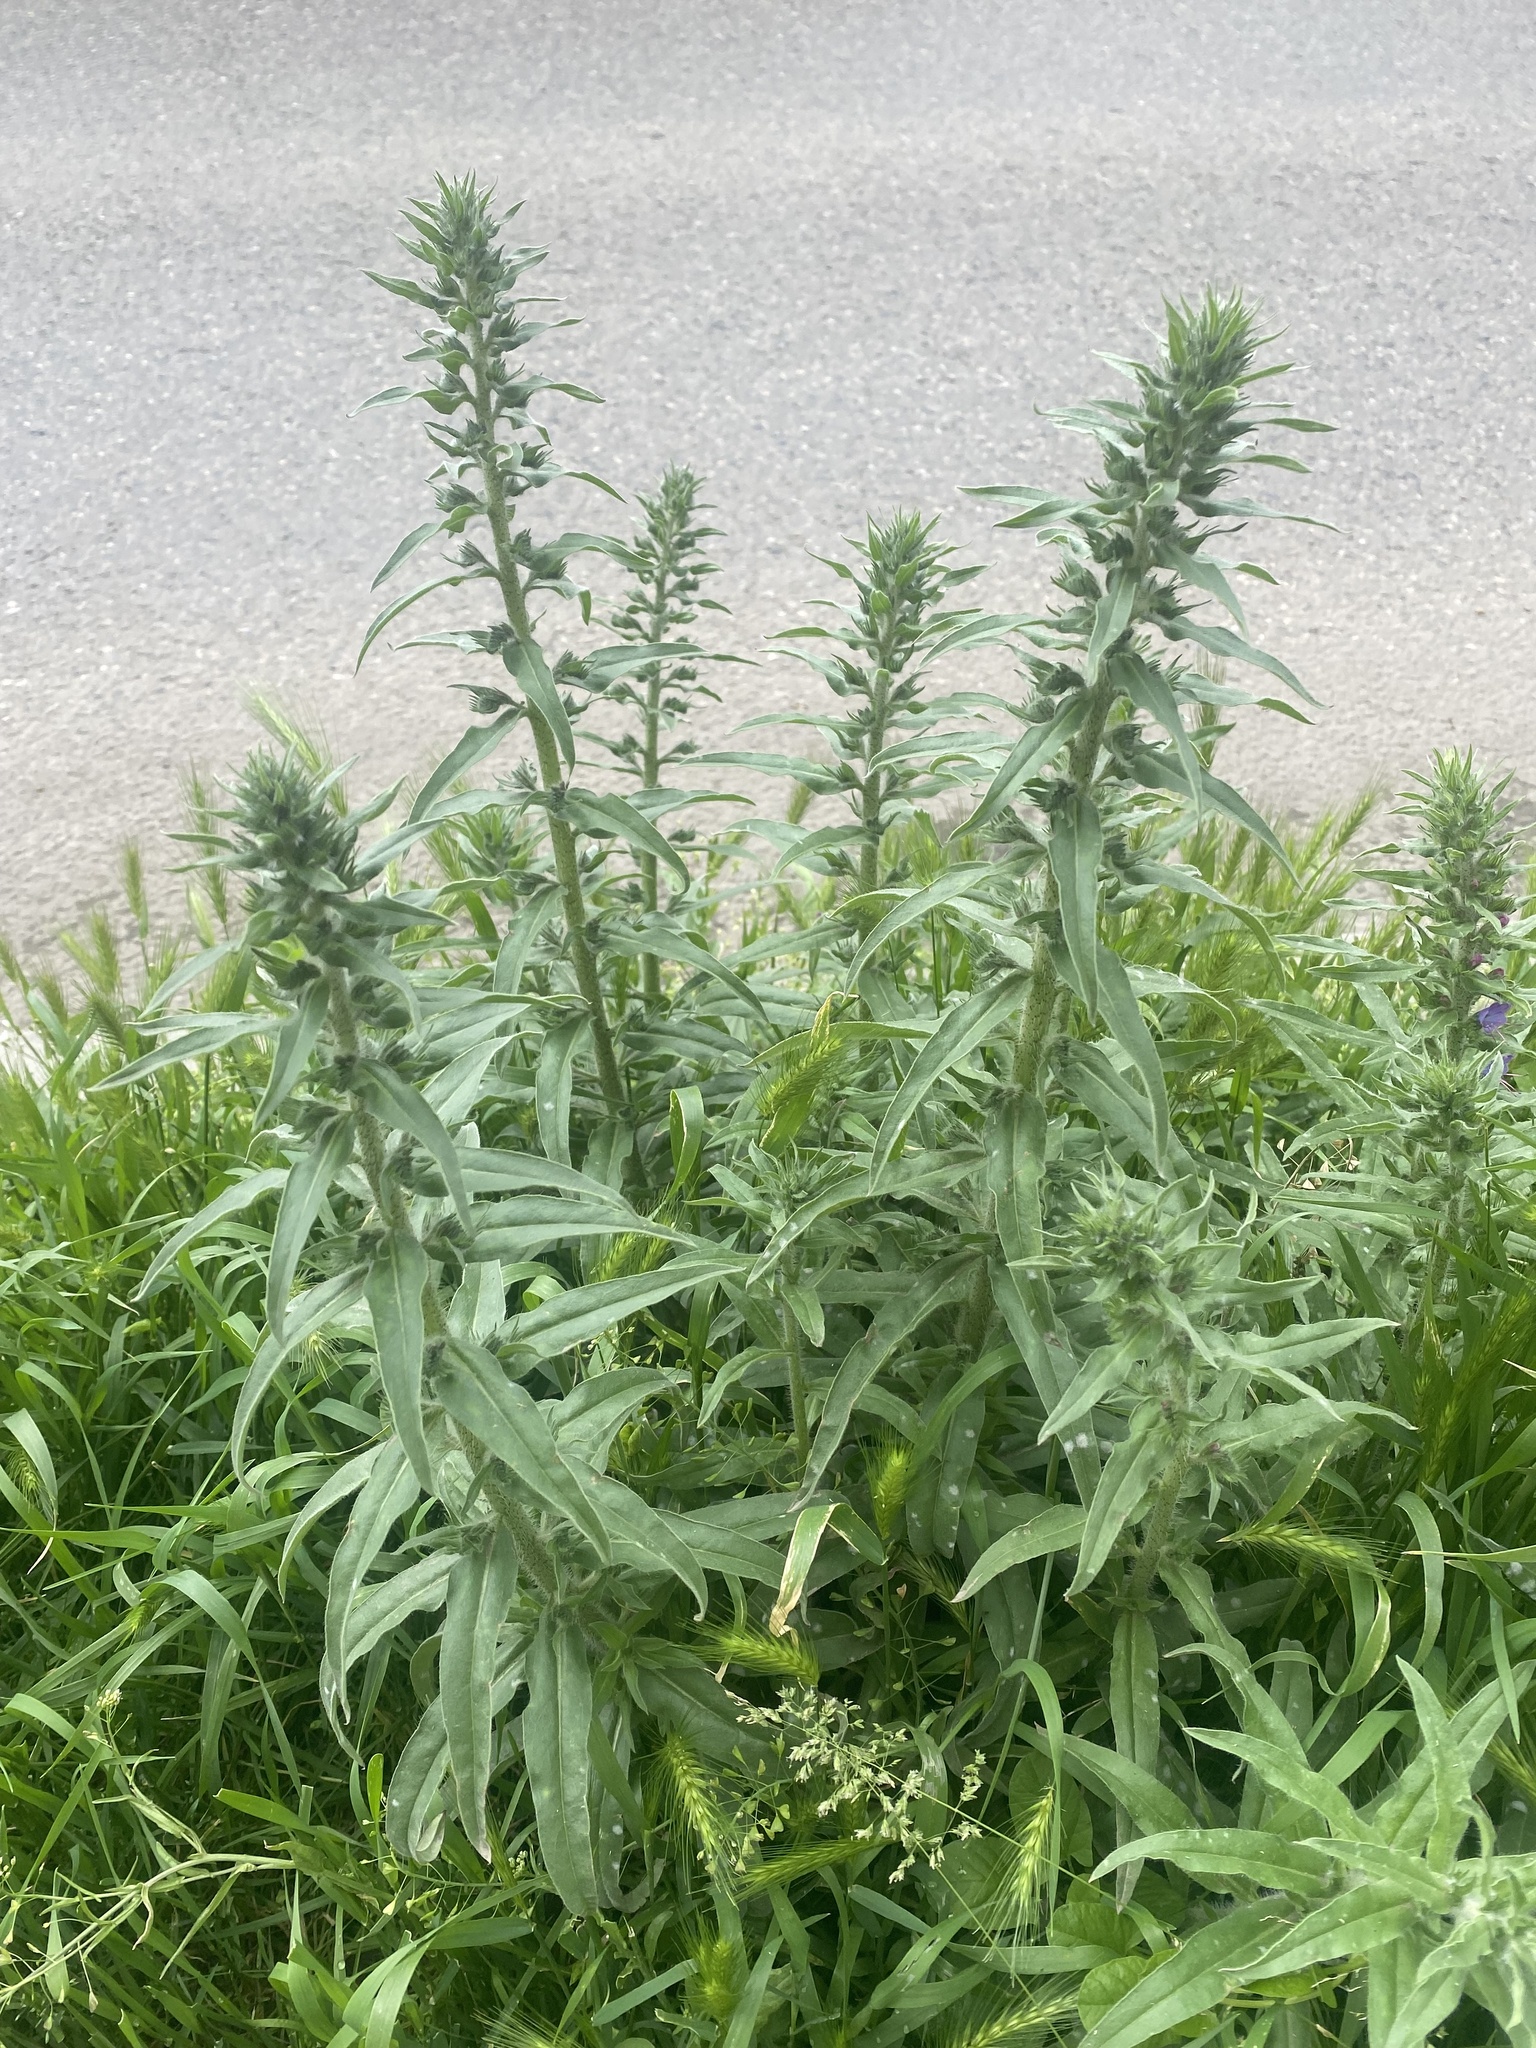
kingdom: Plantae
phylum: Tracheophyta
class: Magnoliopsida
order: Boraginales
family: Boraginaceae
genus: Echium
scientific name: Echium vulgare
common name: Common viper's bugloss
